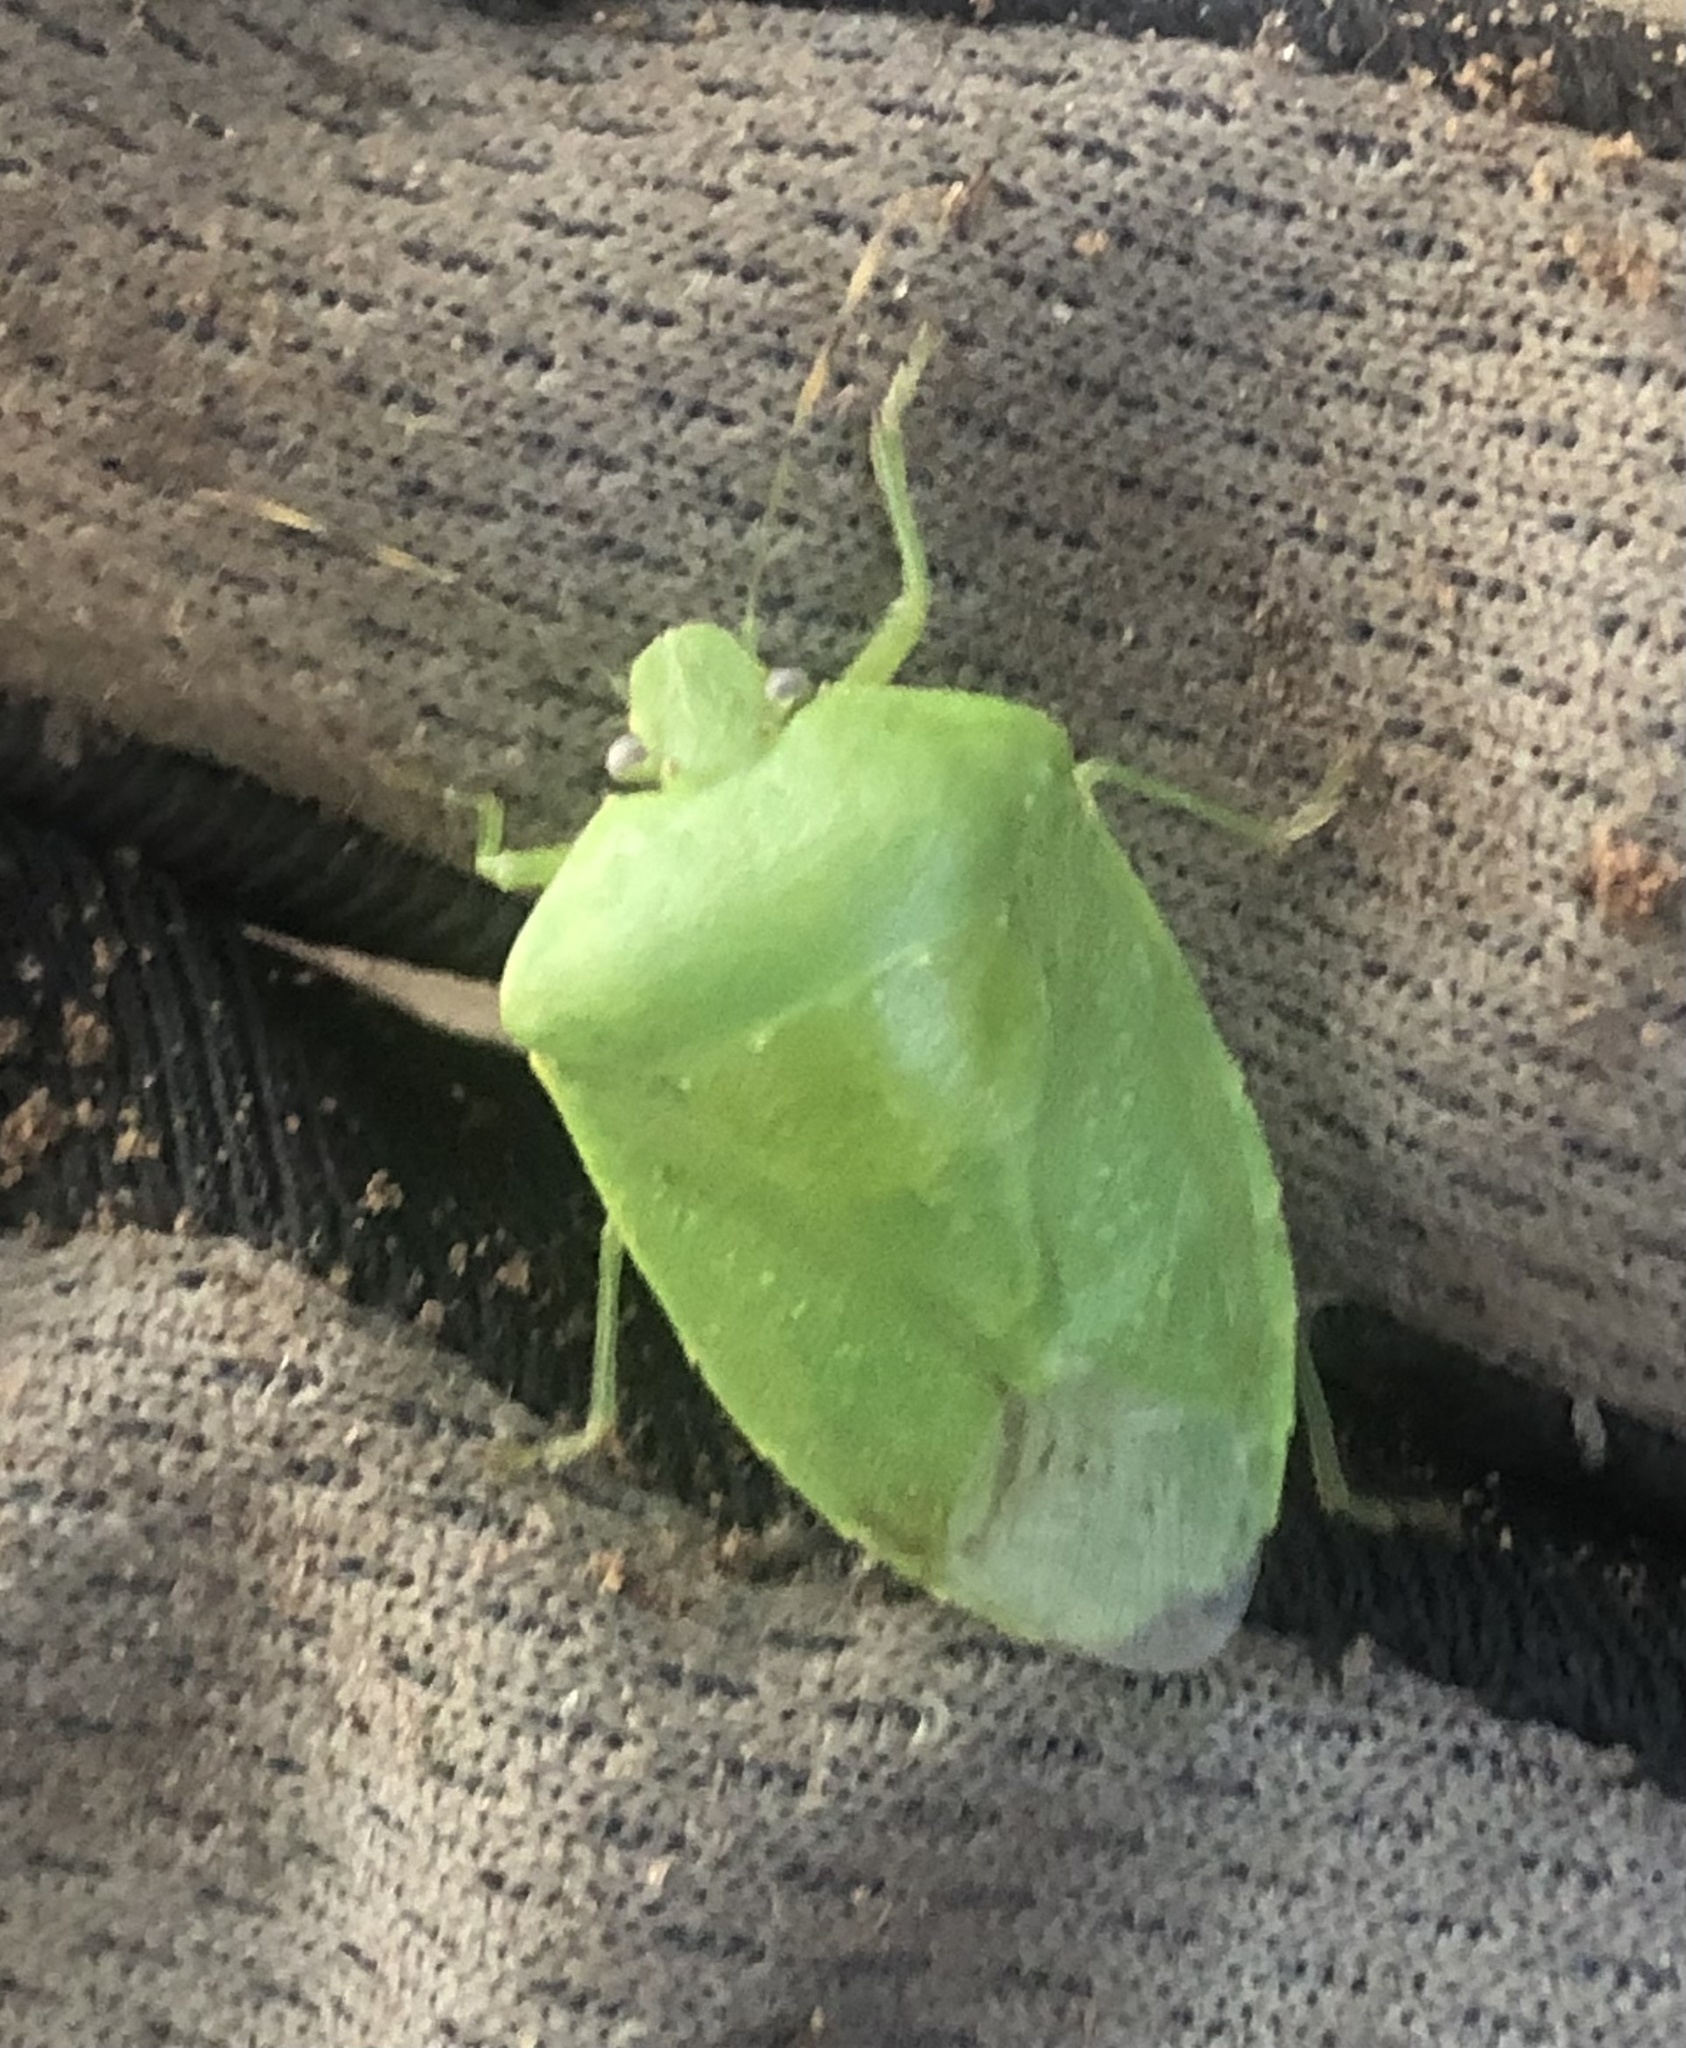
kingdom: Animalia
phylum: Arthropoda
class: Insecta
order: Hemiptera
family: Pentatomidae
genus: Chinavia
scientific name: Chinavia hilaris
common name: Green stink bug
